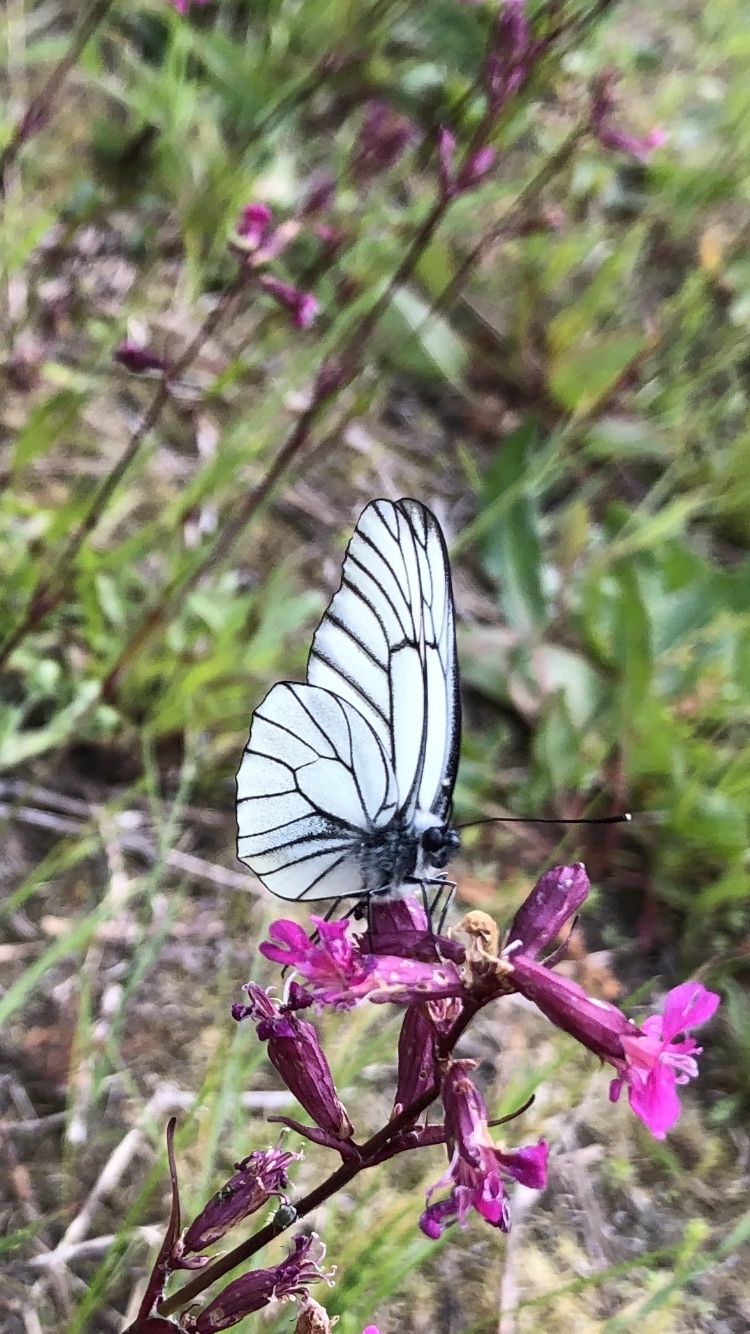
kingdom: Animalia
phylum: Arthropoda
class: Insecta
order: Lepidoptera
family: Pieridae
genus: Aporia
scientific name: Aporia crataegi
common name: Black-veined white
